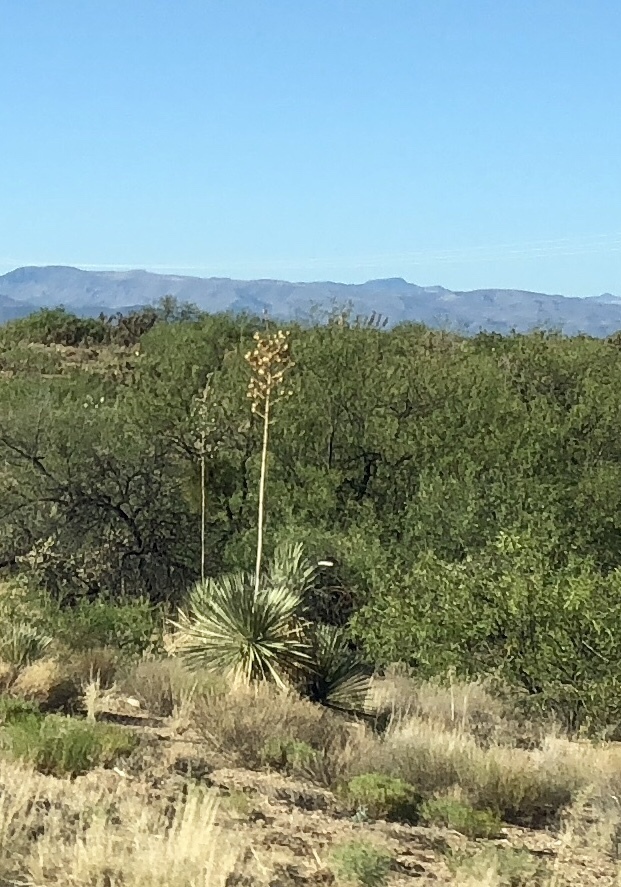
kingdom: Plantae
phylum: Tracheophyta
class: Liliopsida
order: Asparagales
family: Asparagaceae
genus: Yucca
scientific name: Yucca elata
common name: Palmella
